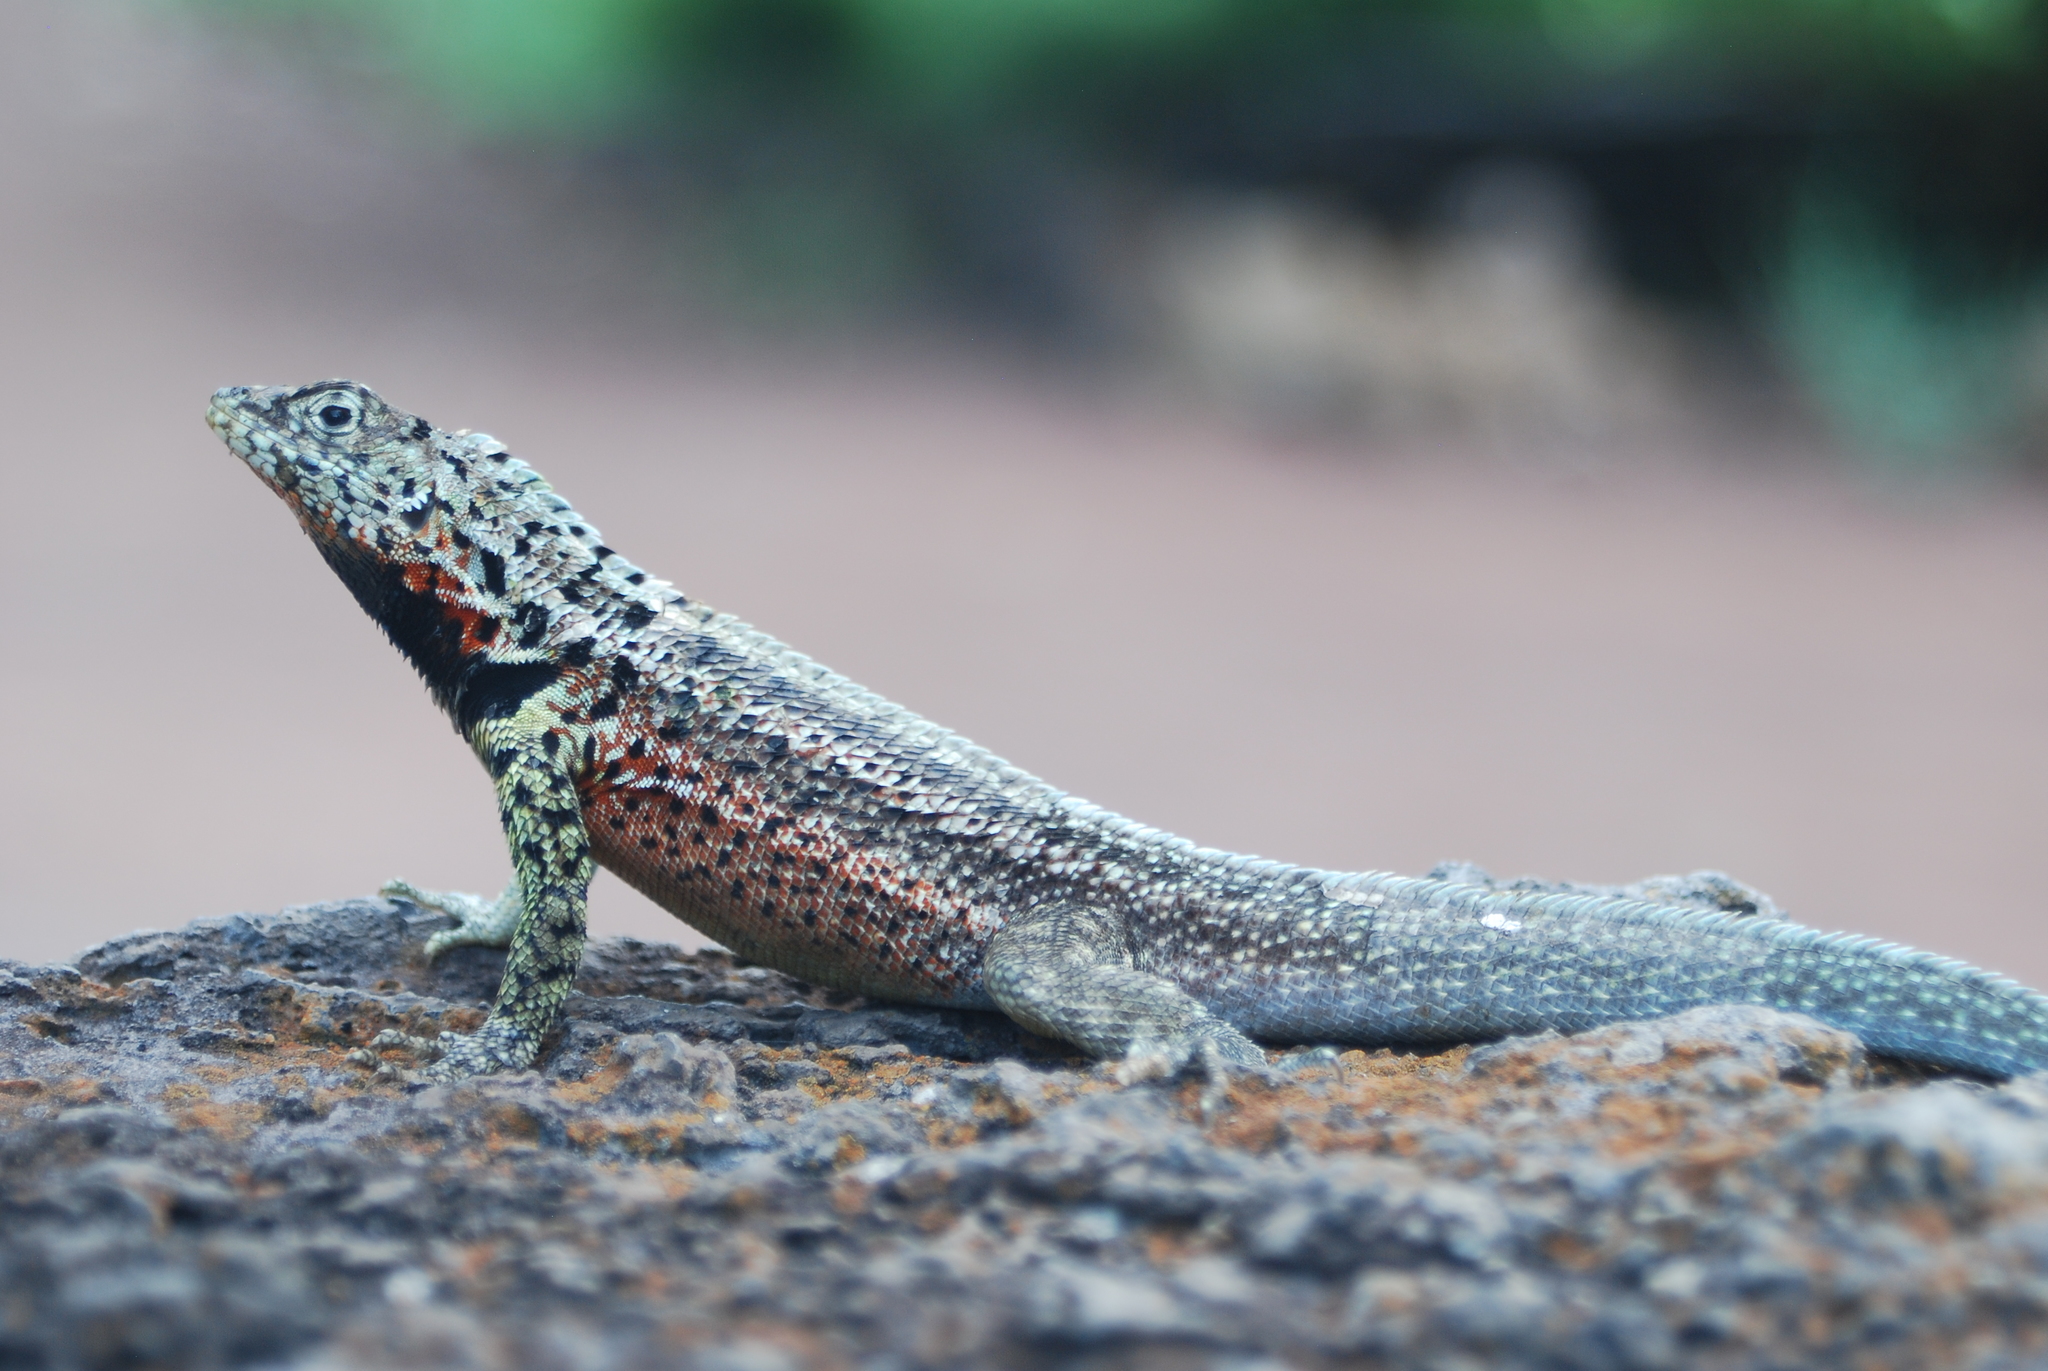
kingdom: Animalia
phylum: Chordata
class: Squamata
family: Tropiduridae
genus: Microlophus
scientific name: Microlophus indefatigabilis
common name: Galapagos lava lizard
